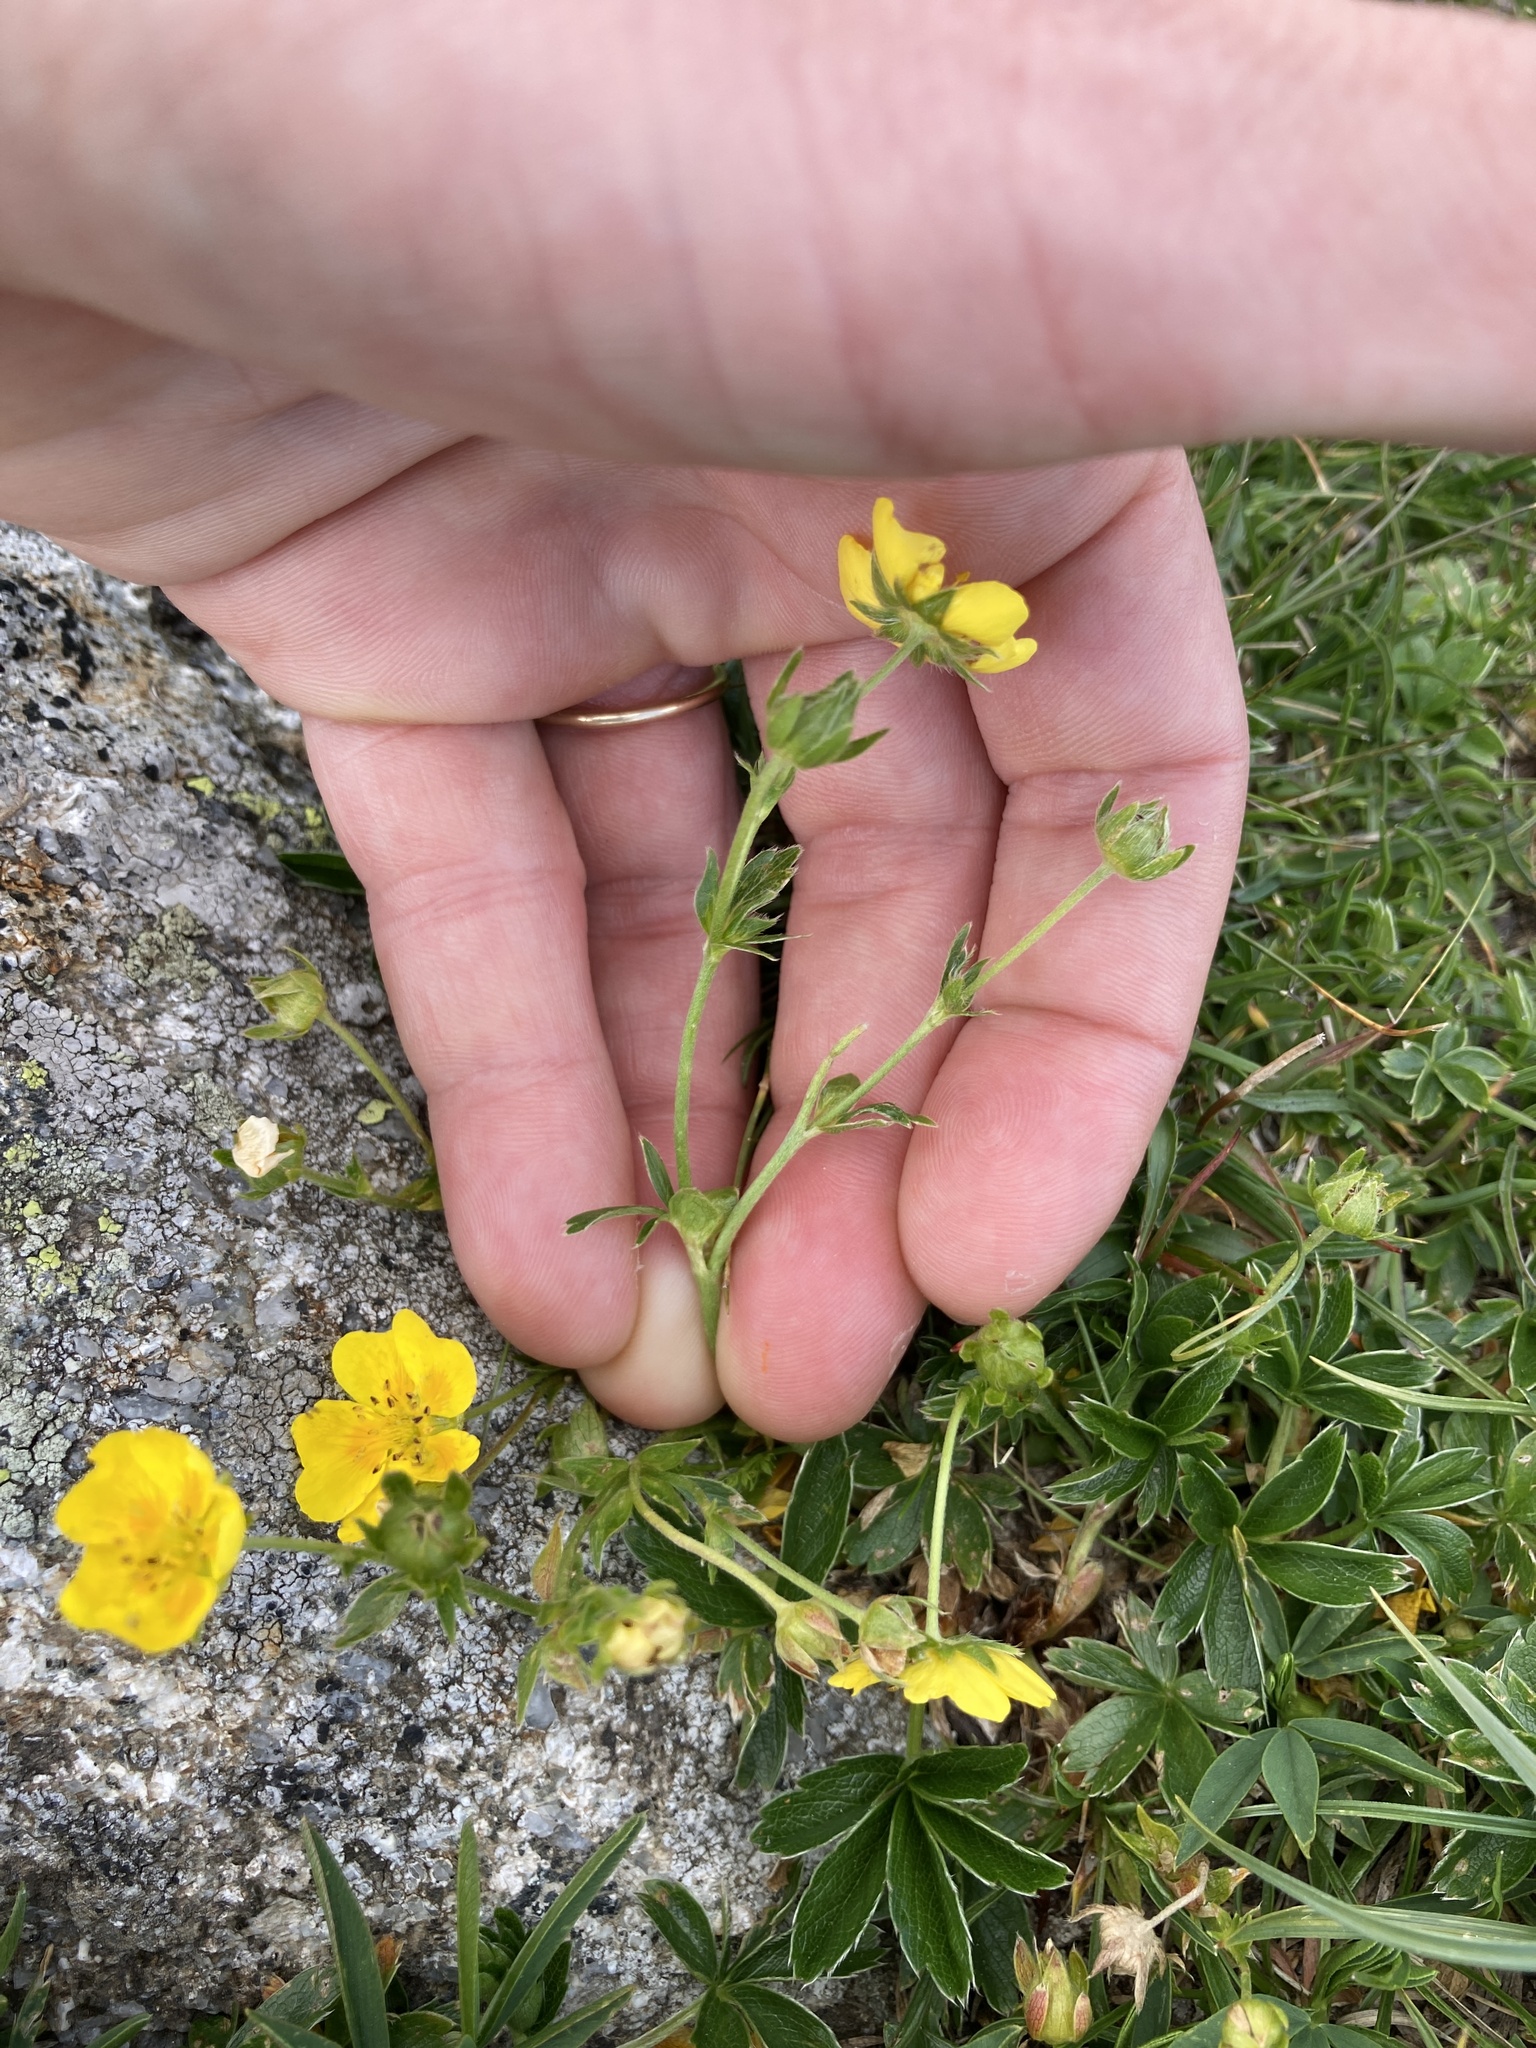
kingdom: Plantae
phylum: Tracheophyta
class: Magnoliopsida
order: Rosales
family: Rosaceae
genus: Potentilla
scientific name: Potentilla aurea
